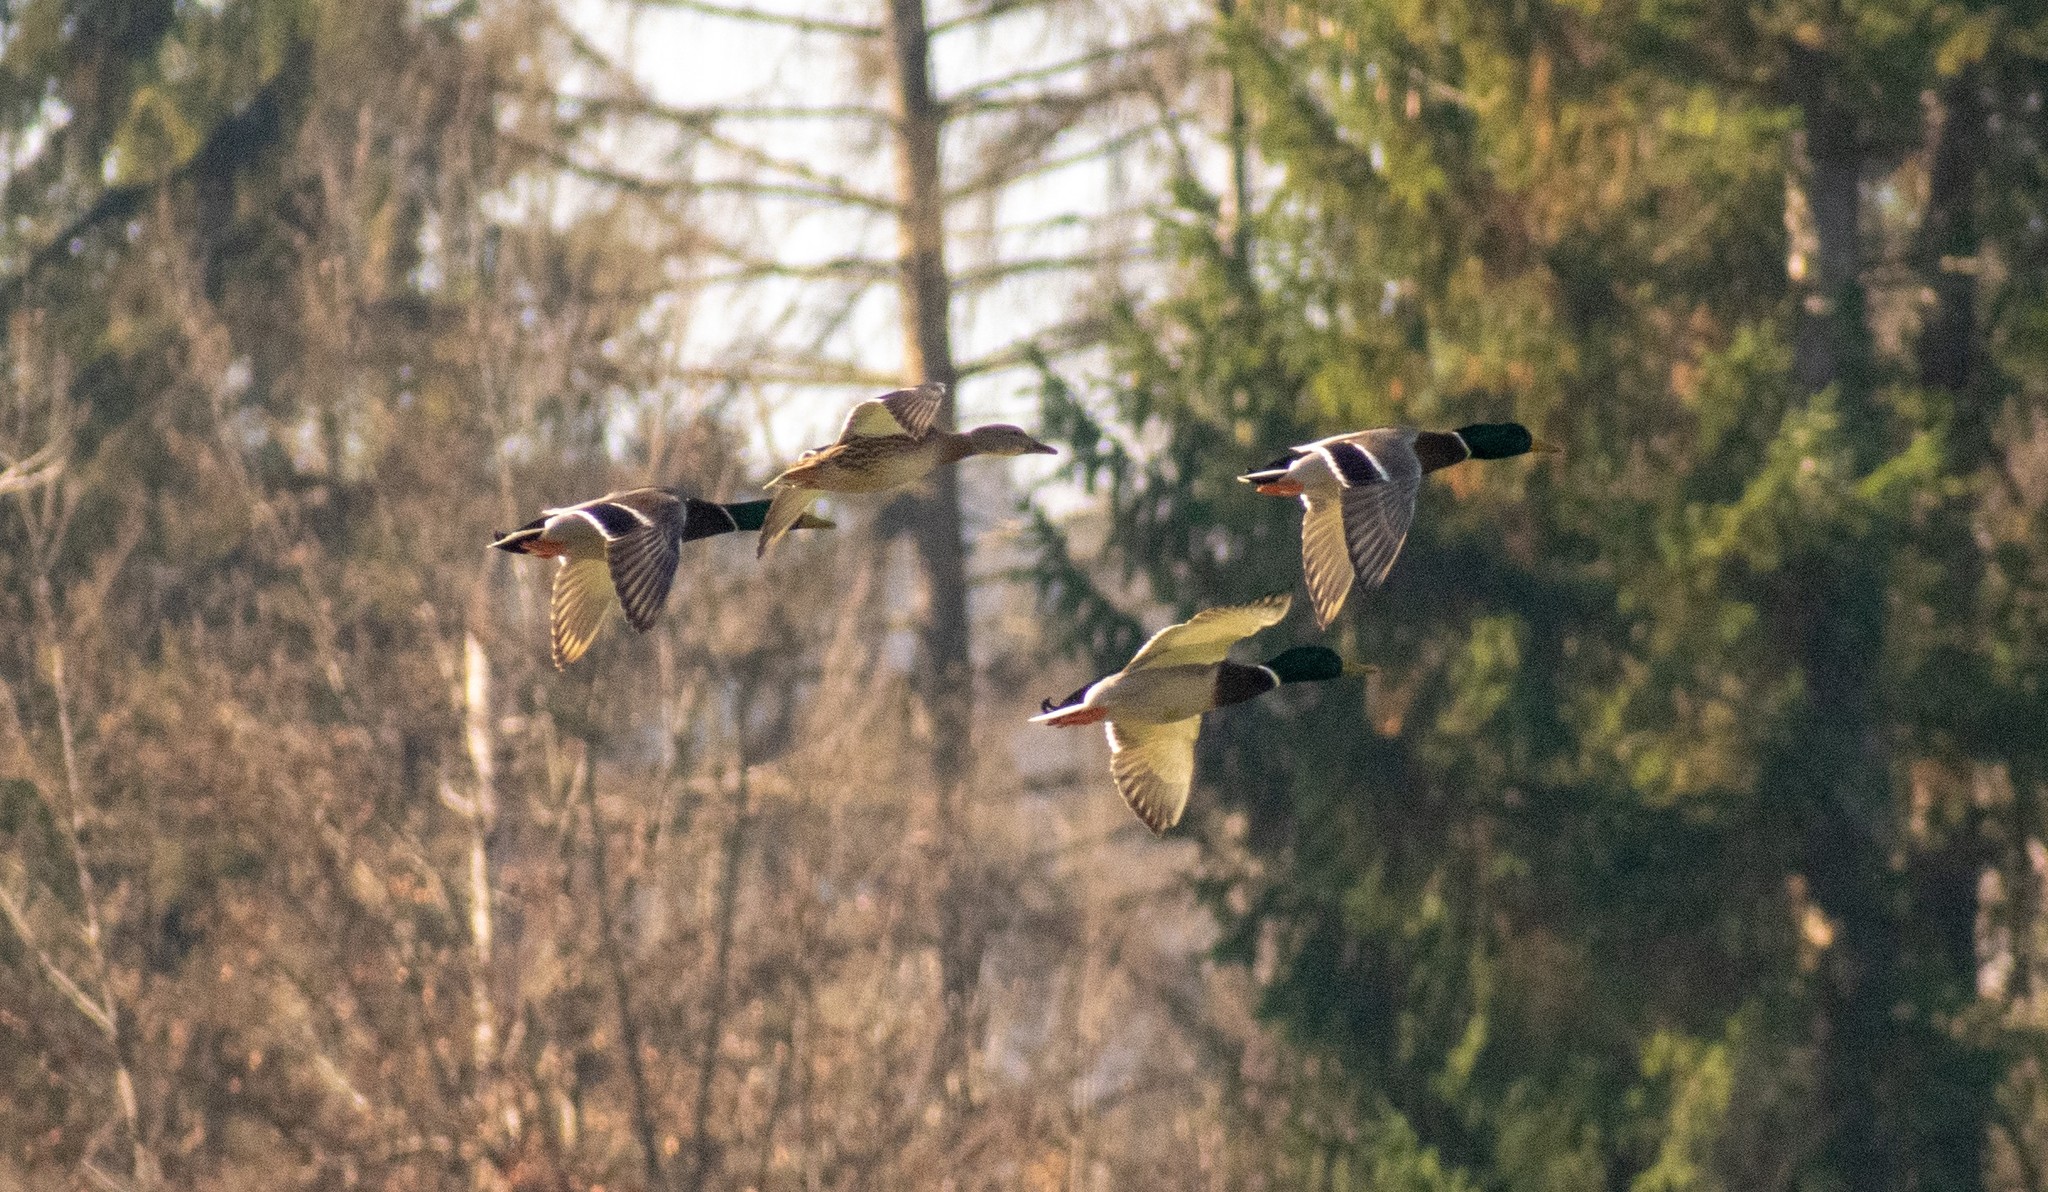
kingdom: Animalia
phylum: Chordata
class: Aves
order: Anseriformes
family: Anatidae
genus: Anas
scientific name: Anas platyrhynchos
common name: Mallard
